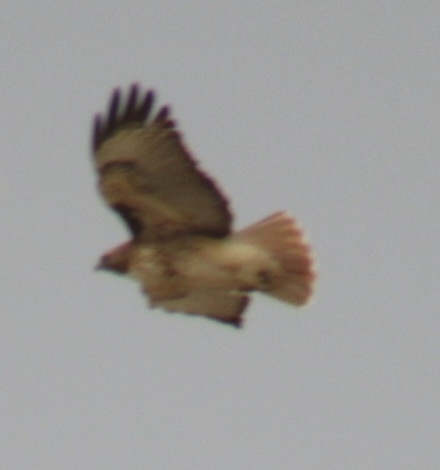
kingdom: Animalia
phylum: Chordata
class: Aves
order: Accipitriformes
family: Accipitridae
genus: Buteo
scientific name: Buteo jamaicensis
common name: Red-tailed hawk
